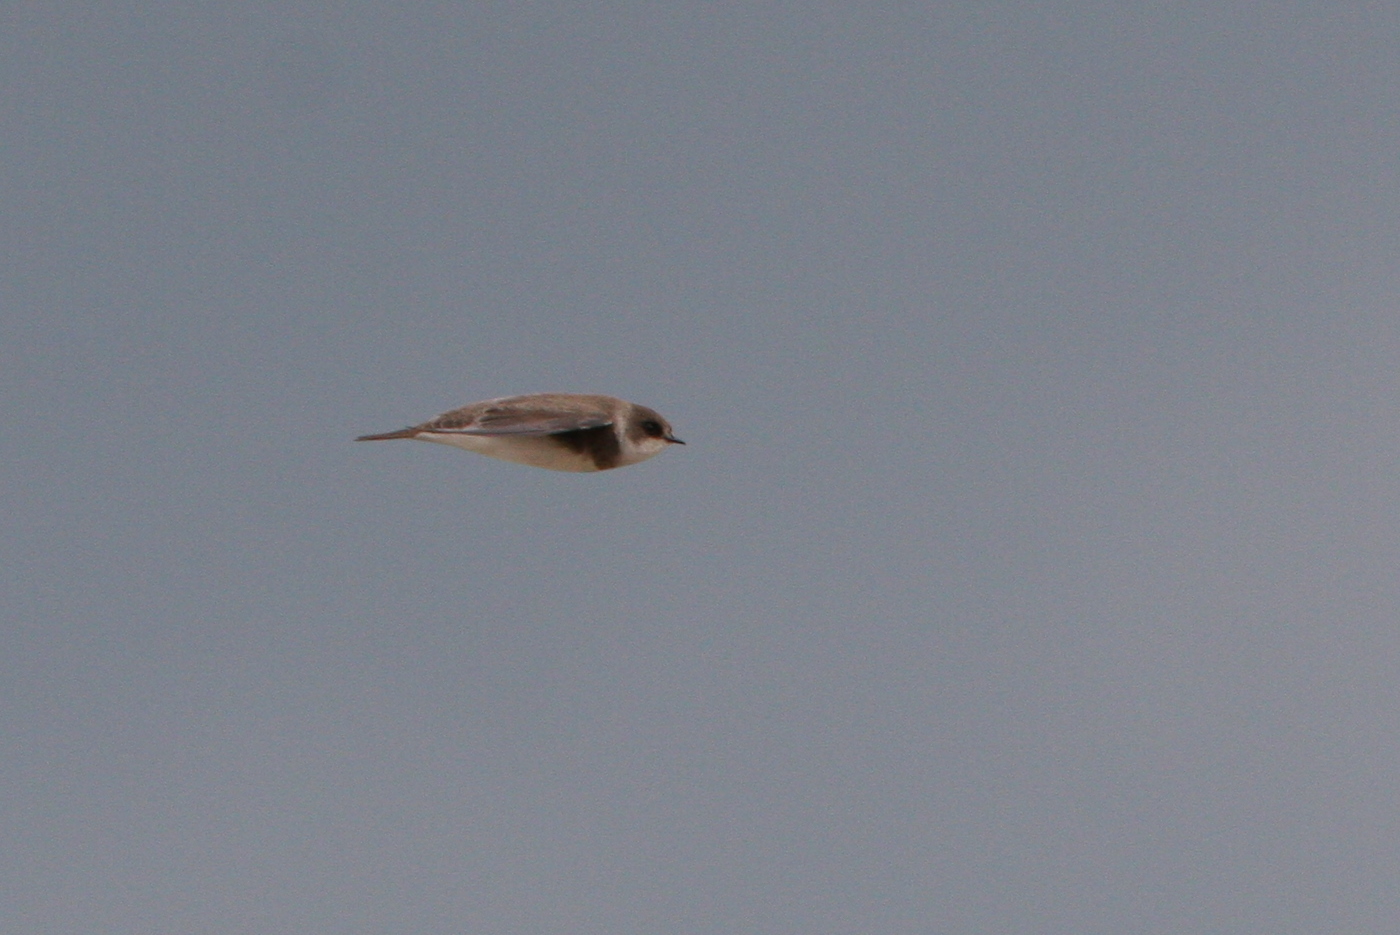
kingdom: Animalia
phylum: Chordata
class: Aves
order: Passeriformes
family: Hirundinidae
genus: Riparia
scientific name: Riparia riparia
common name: Sand martin
